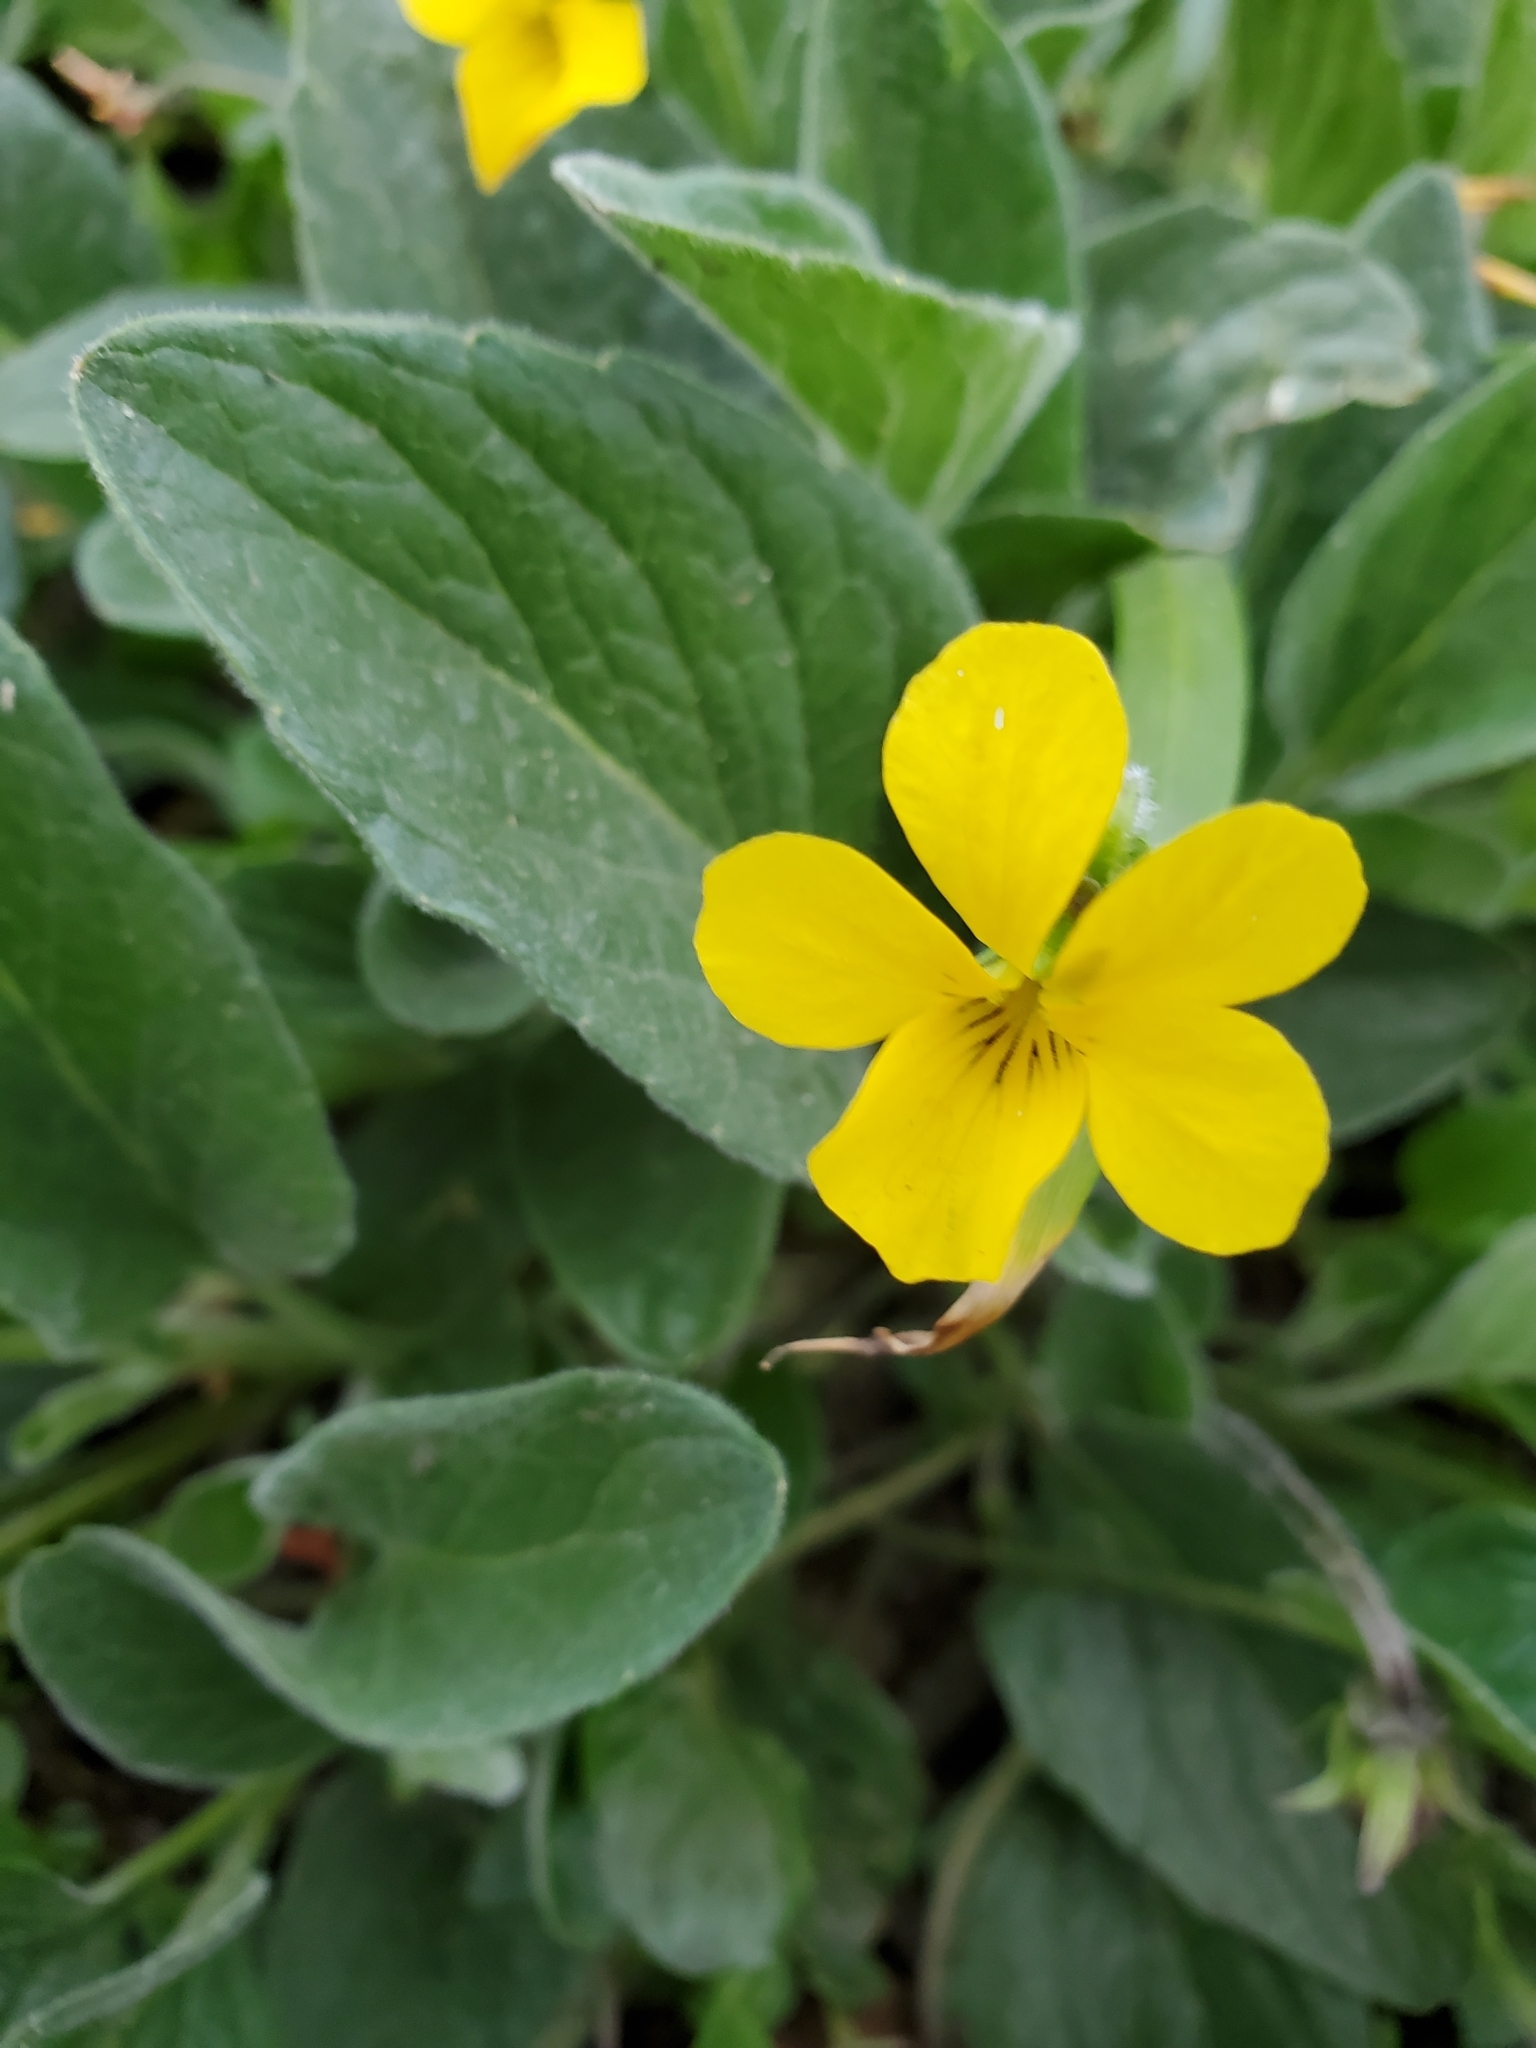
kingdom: Plantae
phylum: Tracheophyta
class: Magnoliopsida
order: Malpighiales
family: Violaceae
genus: Viola
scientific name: Viola praemorsa
